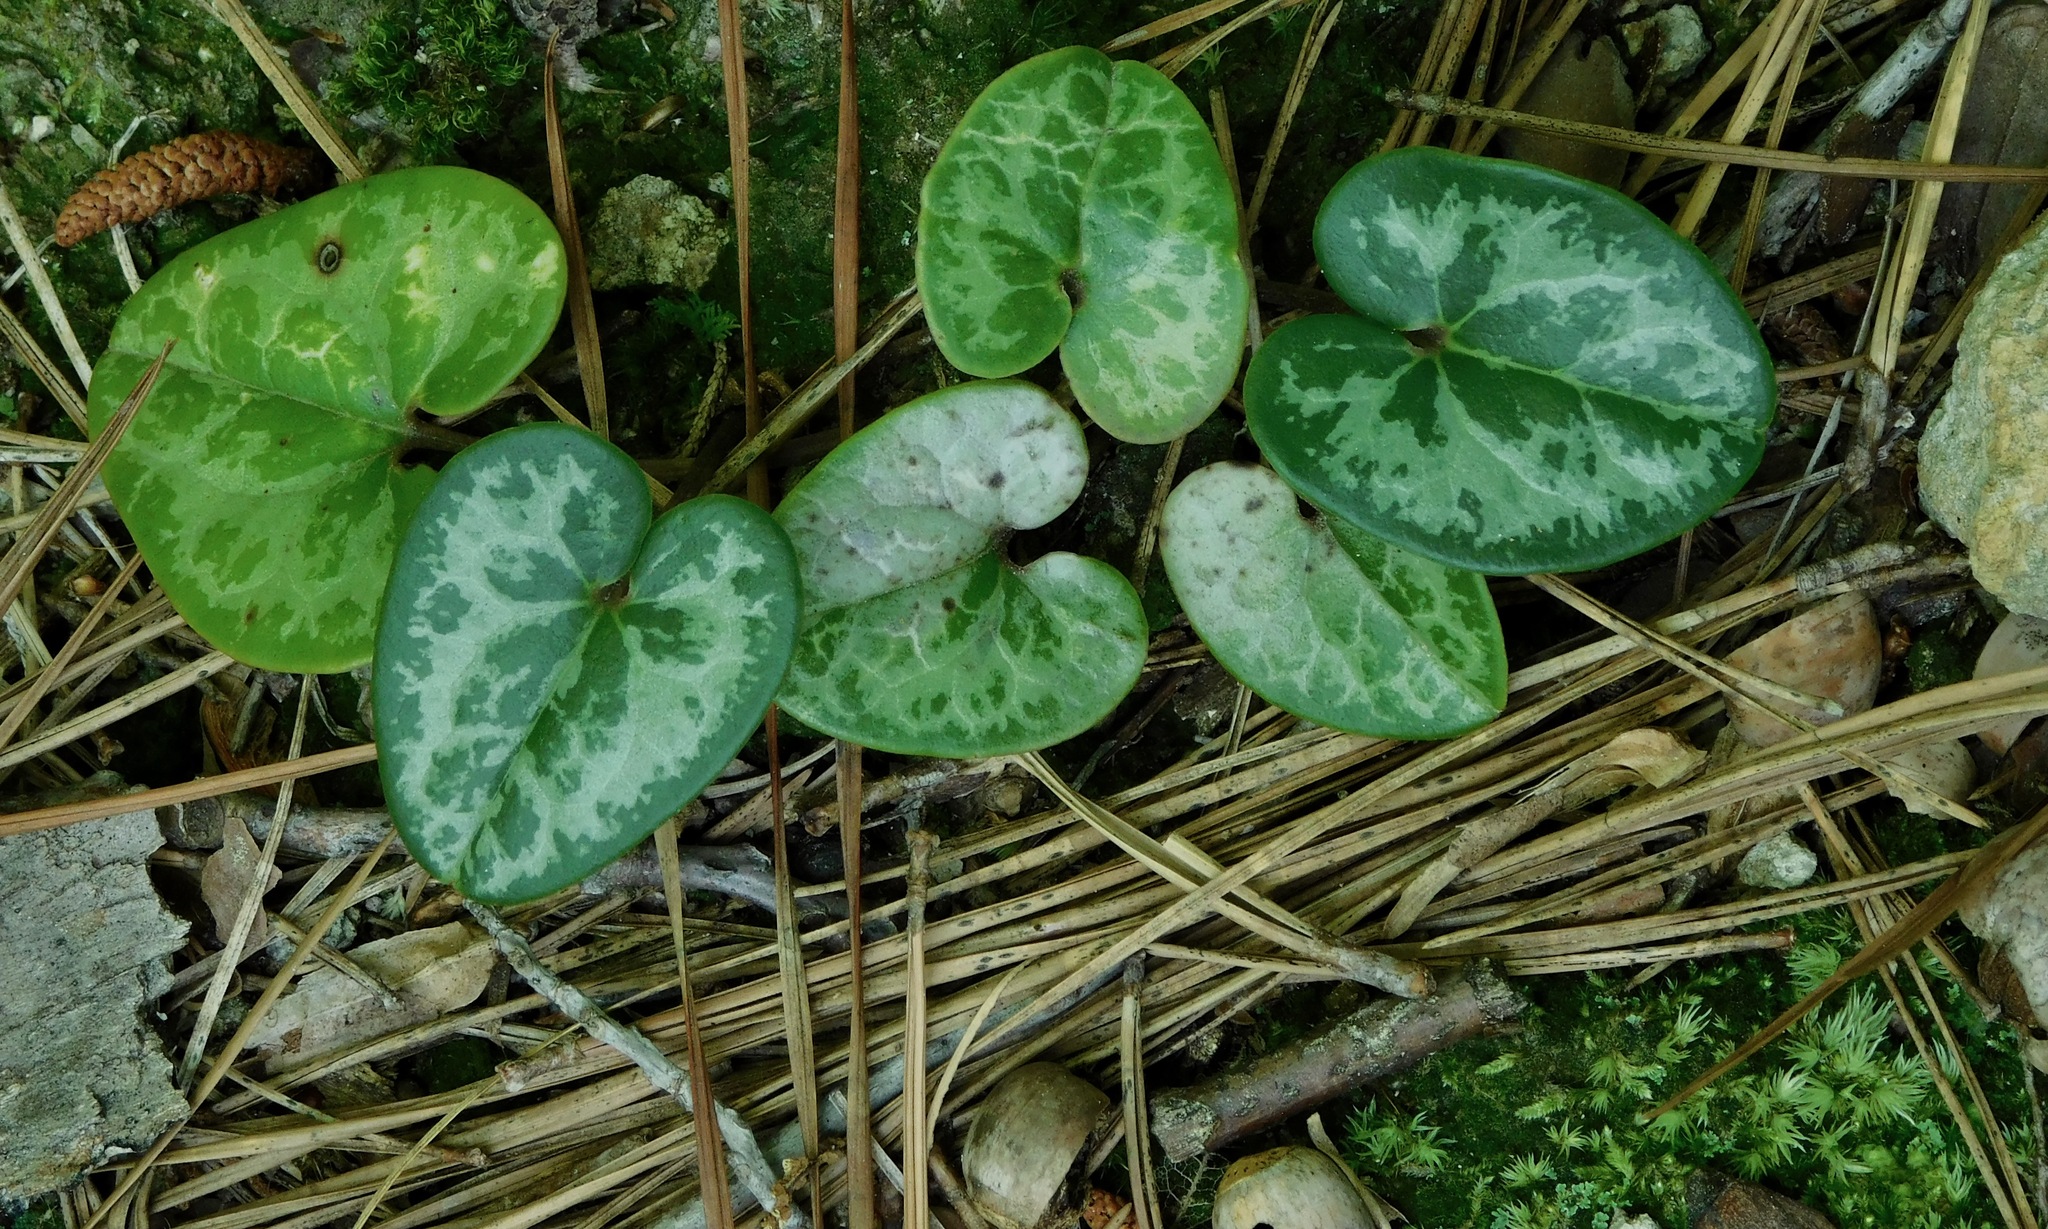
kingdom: Plantae
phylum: Tracheophyta
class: Magnoliopsida
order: Piperales
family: Aristolochiaceae
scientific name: Aristolochiaceae
